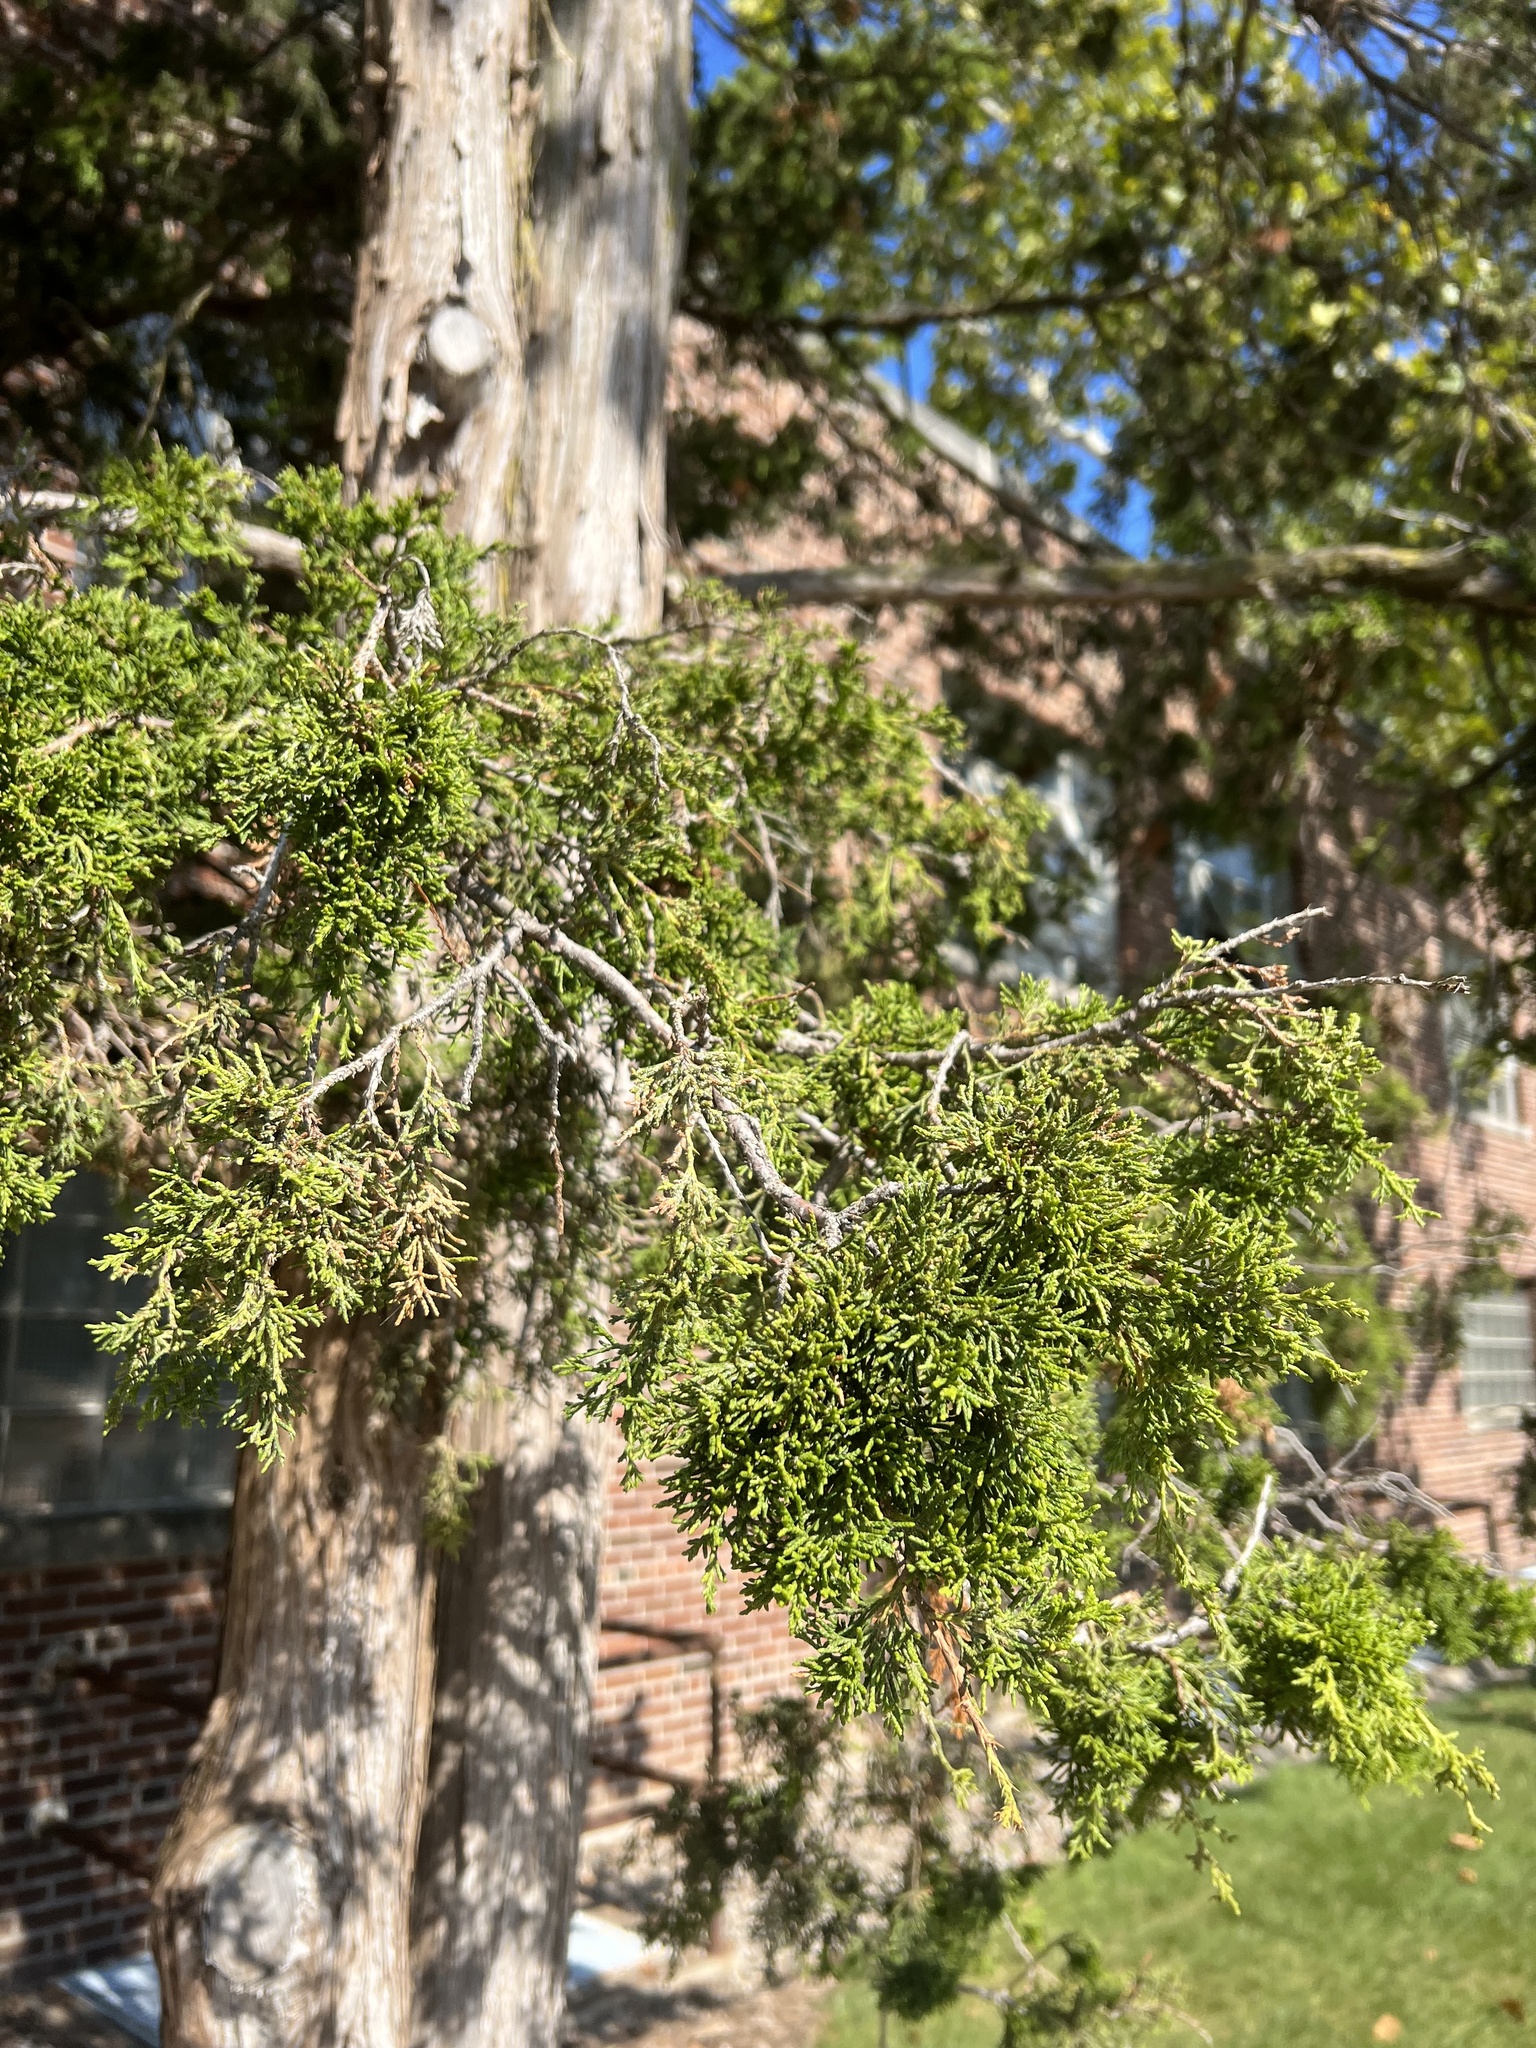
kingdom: Plantae
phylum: Tracheophyta
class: Pinopsida
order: Pinales
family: Cupressaceae
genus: Juniperus
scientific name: Juniperus virginiana
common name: Red juniper
